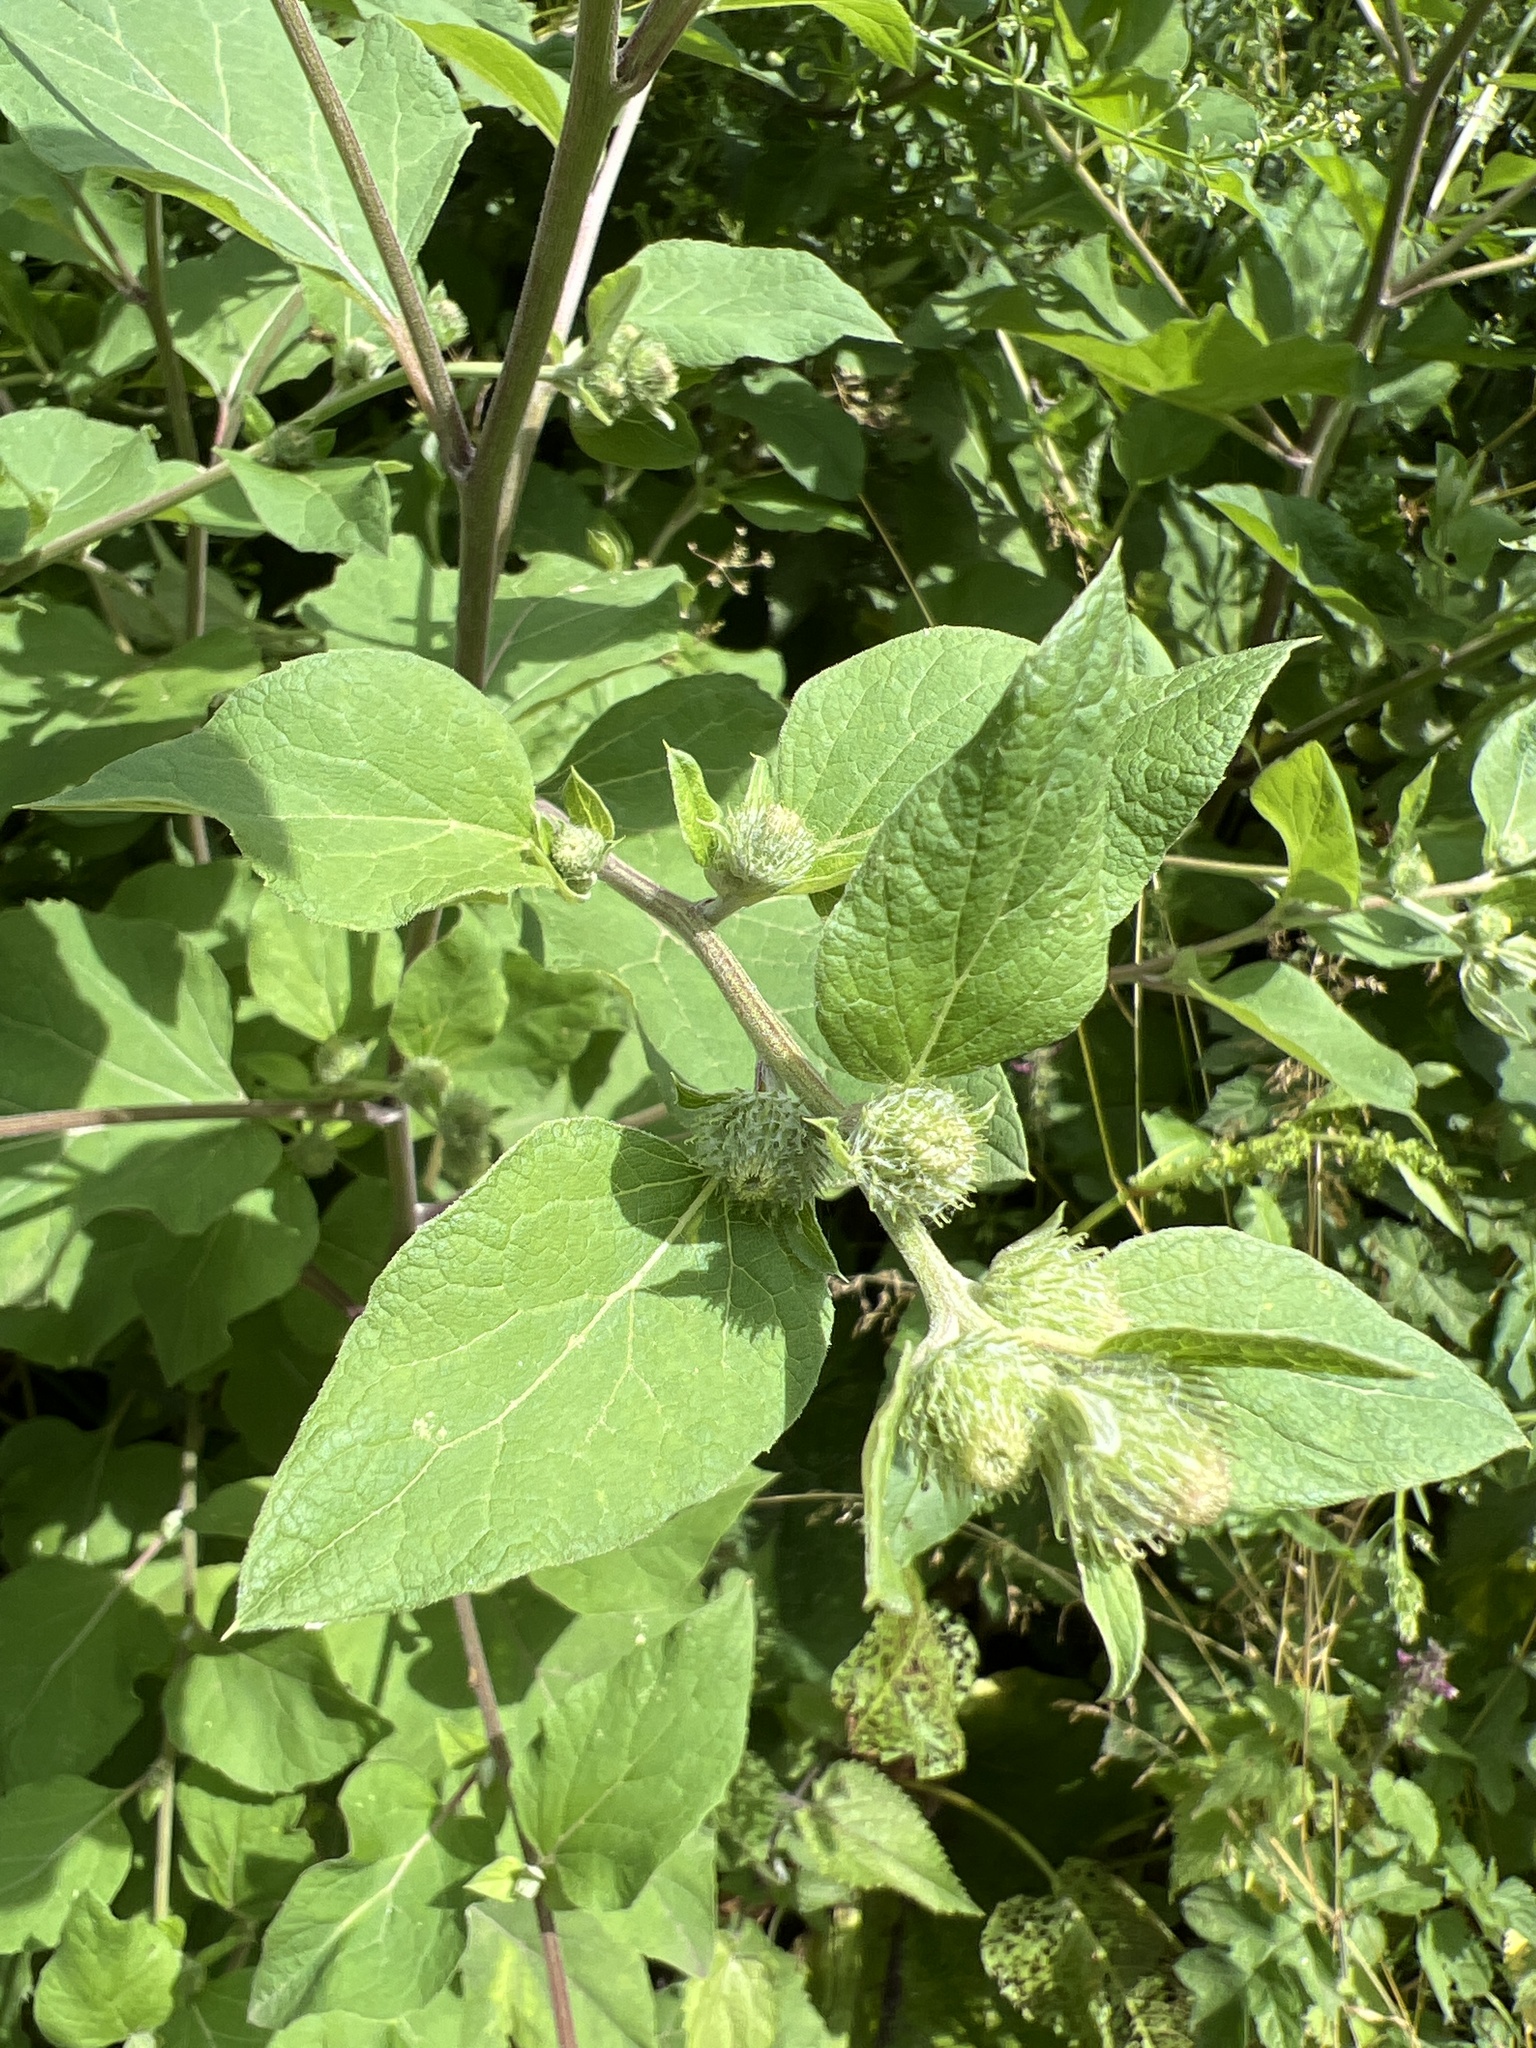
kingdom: Plantae
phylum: Tracheophyta
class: Magnoliopsida
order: Asterales
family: Asteraceae
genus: Arctium
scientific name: Arctium minus
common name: Lesser burdock
